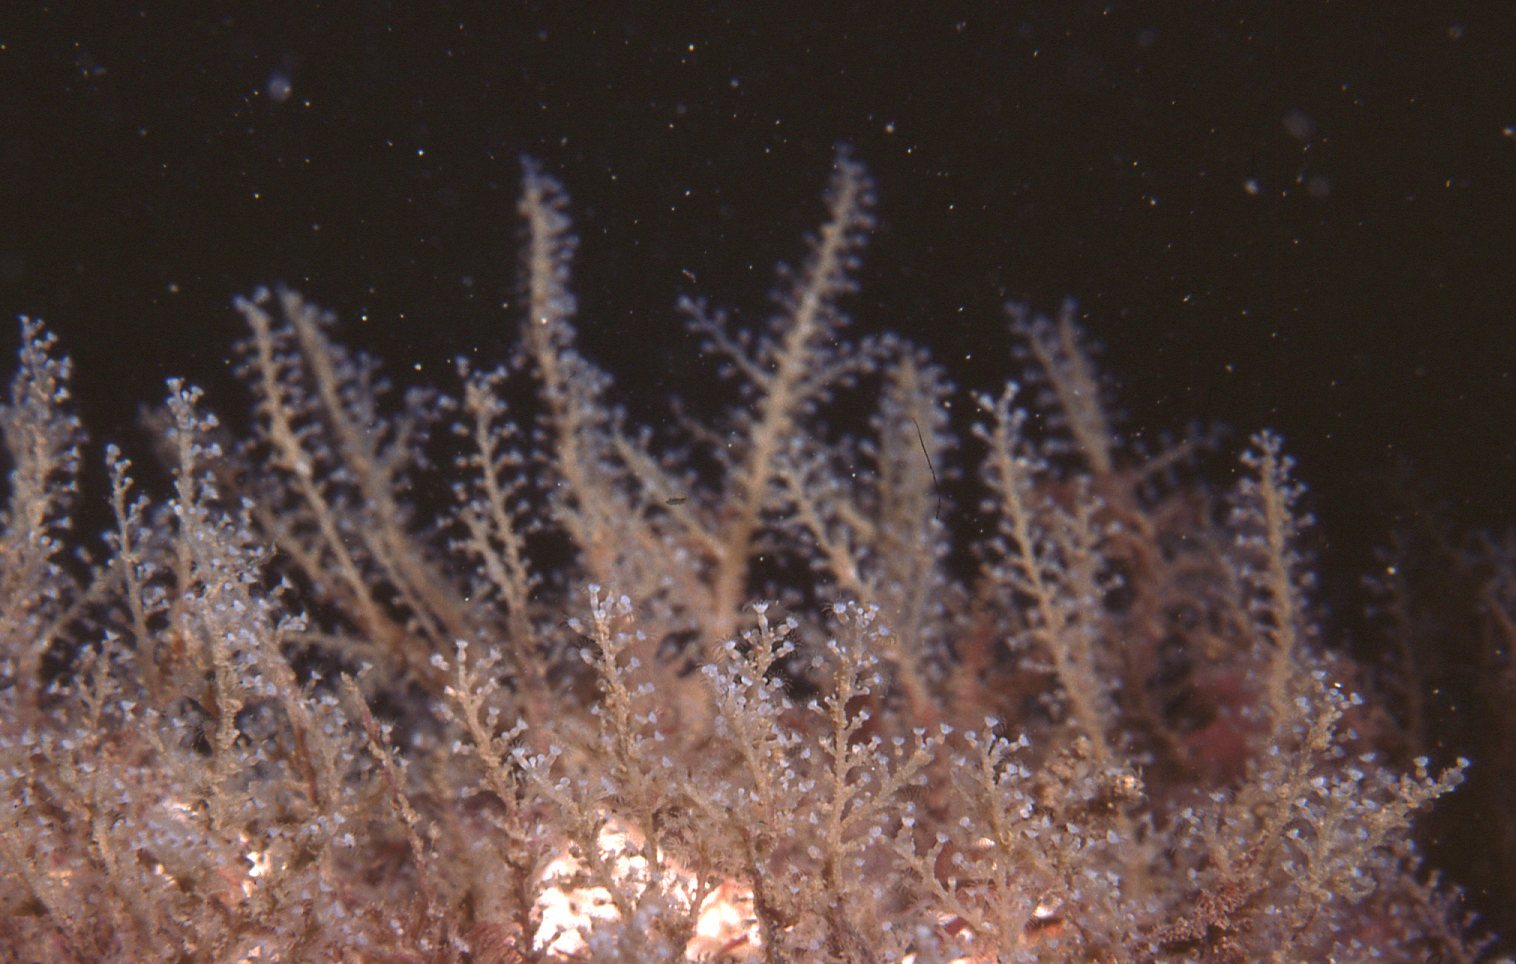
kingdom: Animalia
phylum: Cnidaria
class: Hydrozoa
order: Leptothecata
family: Phylactothecidae
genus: Hydrodendron
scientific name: Hydrodendron australe
